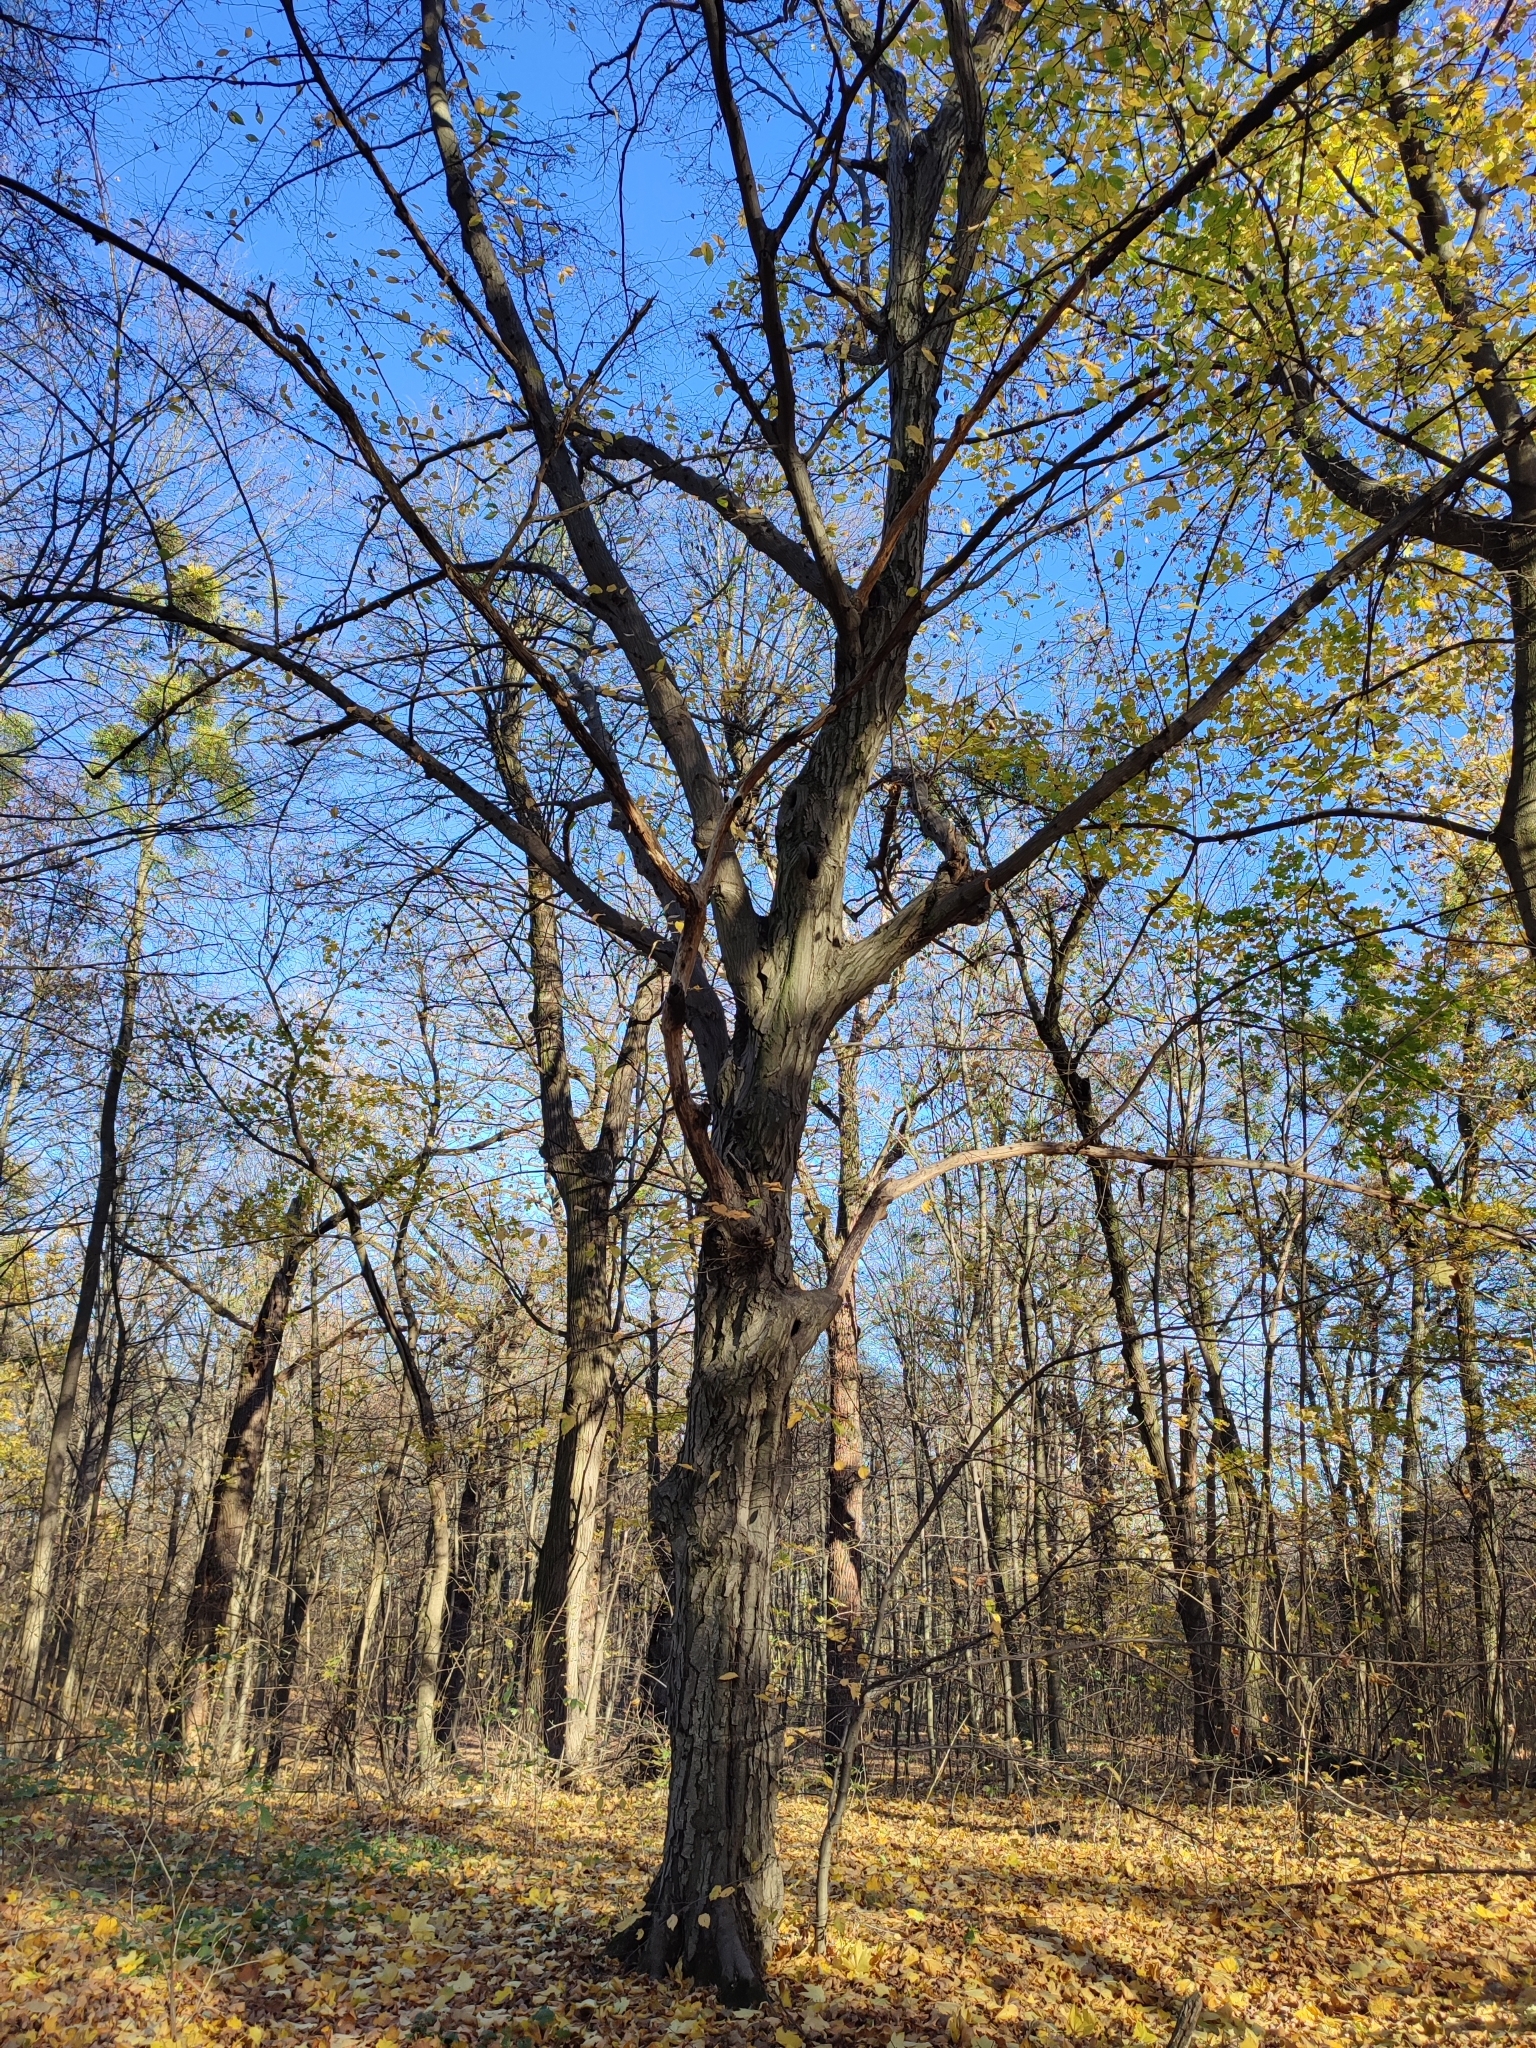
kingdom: Plantae
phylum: Tracheophyta
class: Magnoliopsida
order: Fagales
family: Betulaceae
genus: Carpinus
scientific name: Carpinus betulus
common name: Hornbeam
